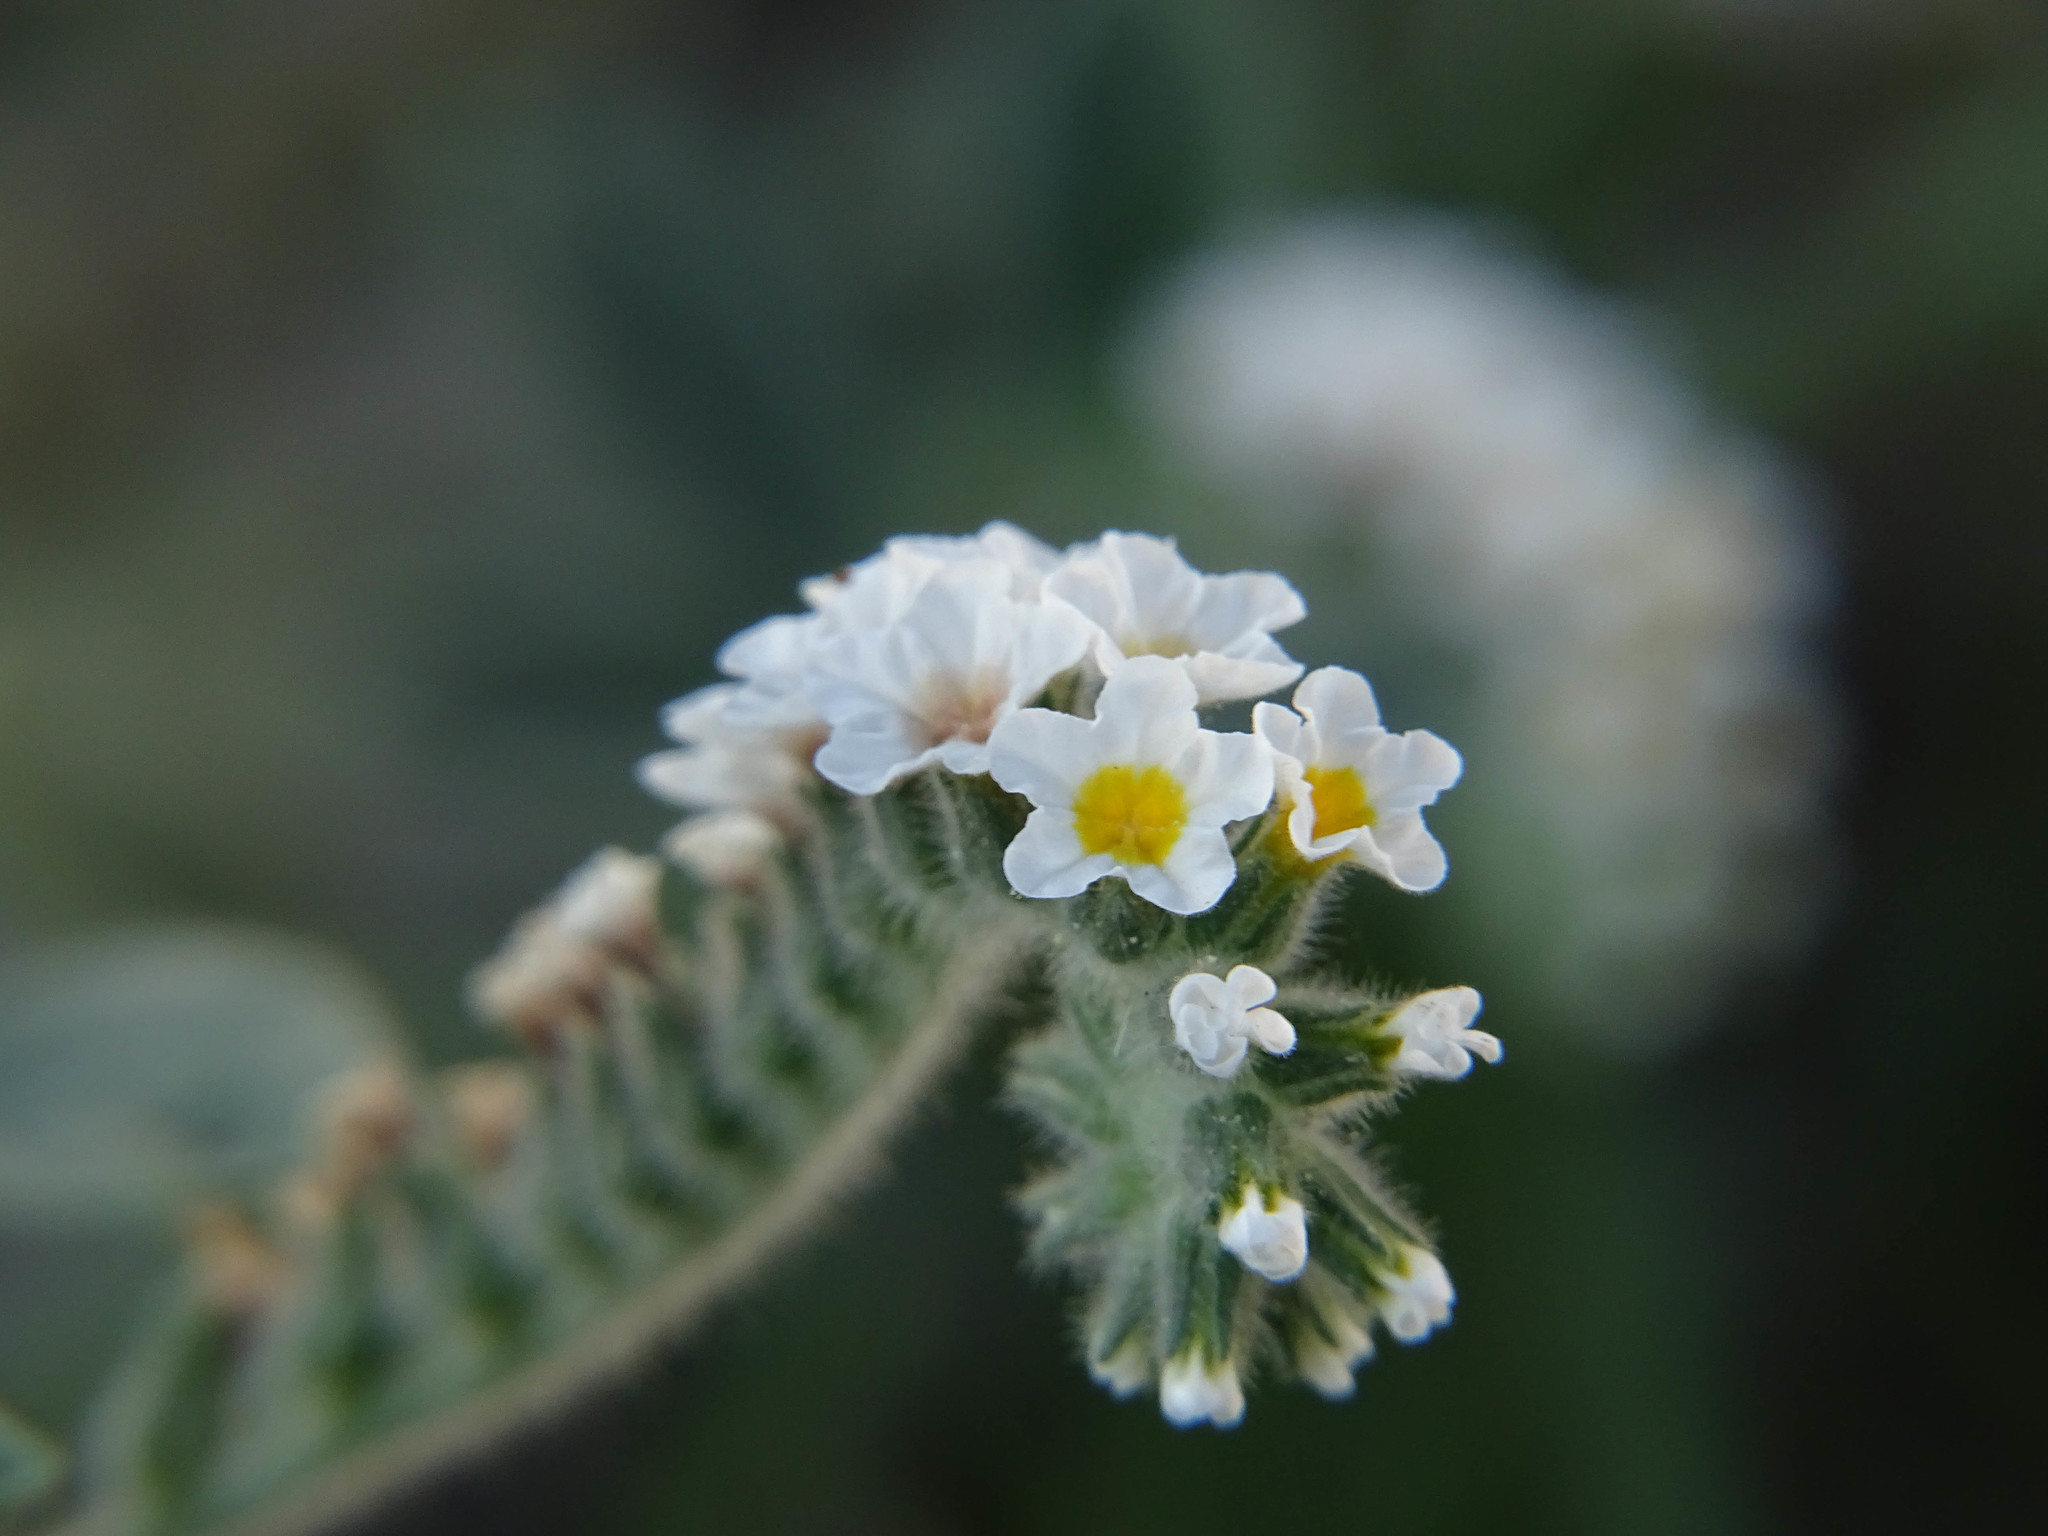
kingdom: Plantae
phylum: Tracheophyta
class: Magnoliopsida
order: Boraginales
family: Heliotropiaceae
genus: Heliotropium
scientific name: Heliotropium hirsutissimum
